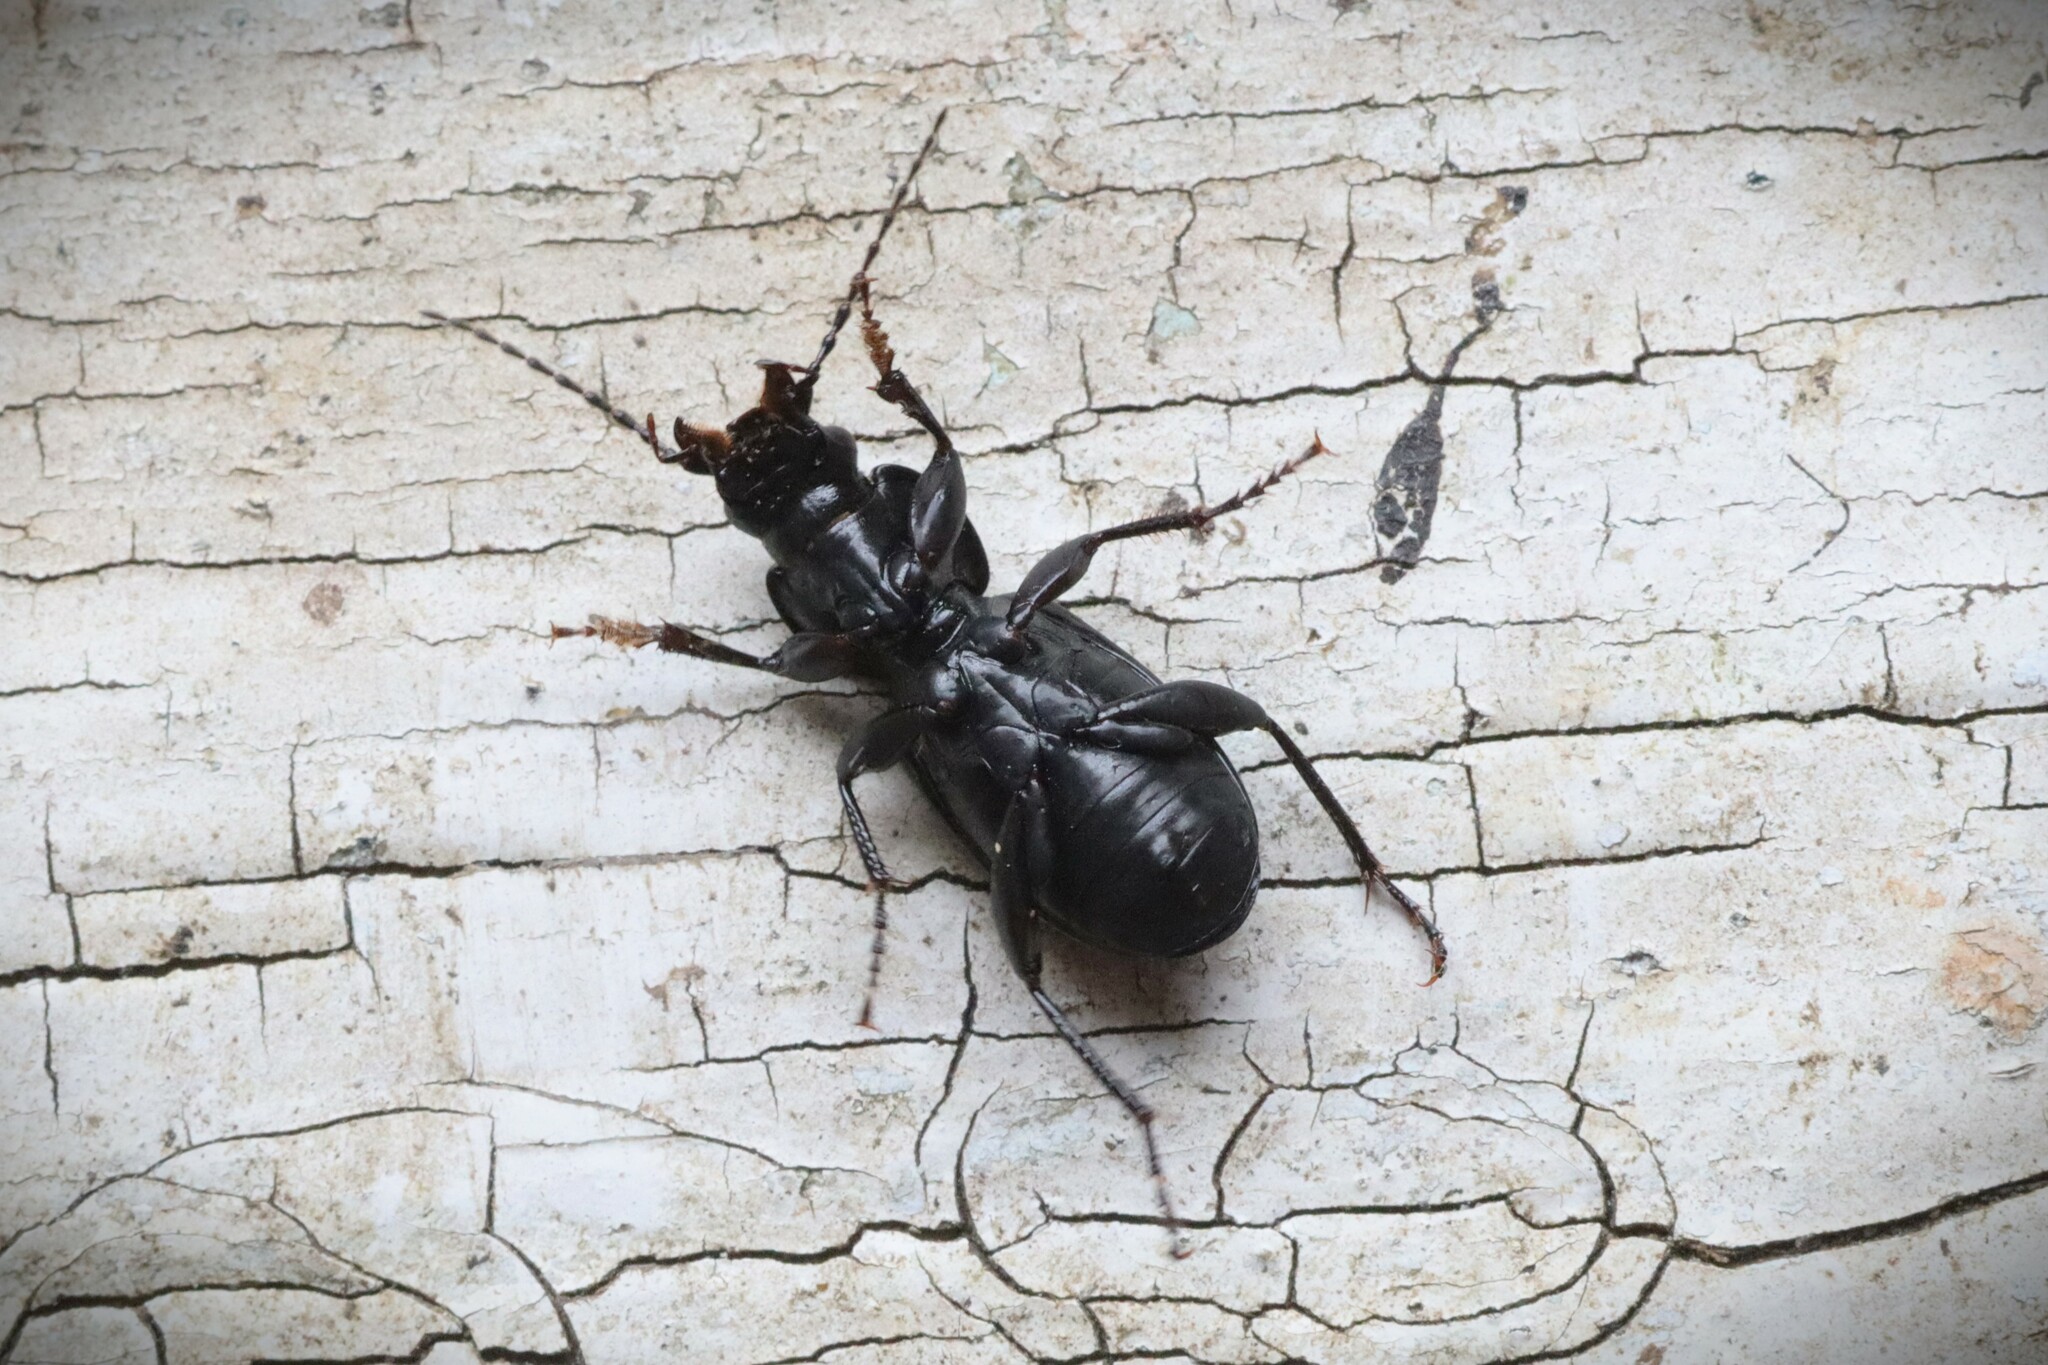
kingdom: Animalia
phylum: Arthropoda
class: Insecta
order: Coleoptera
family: Carabidae
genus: Pterostichus
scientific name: Pterostichus aethiops
